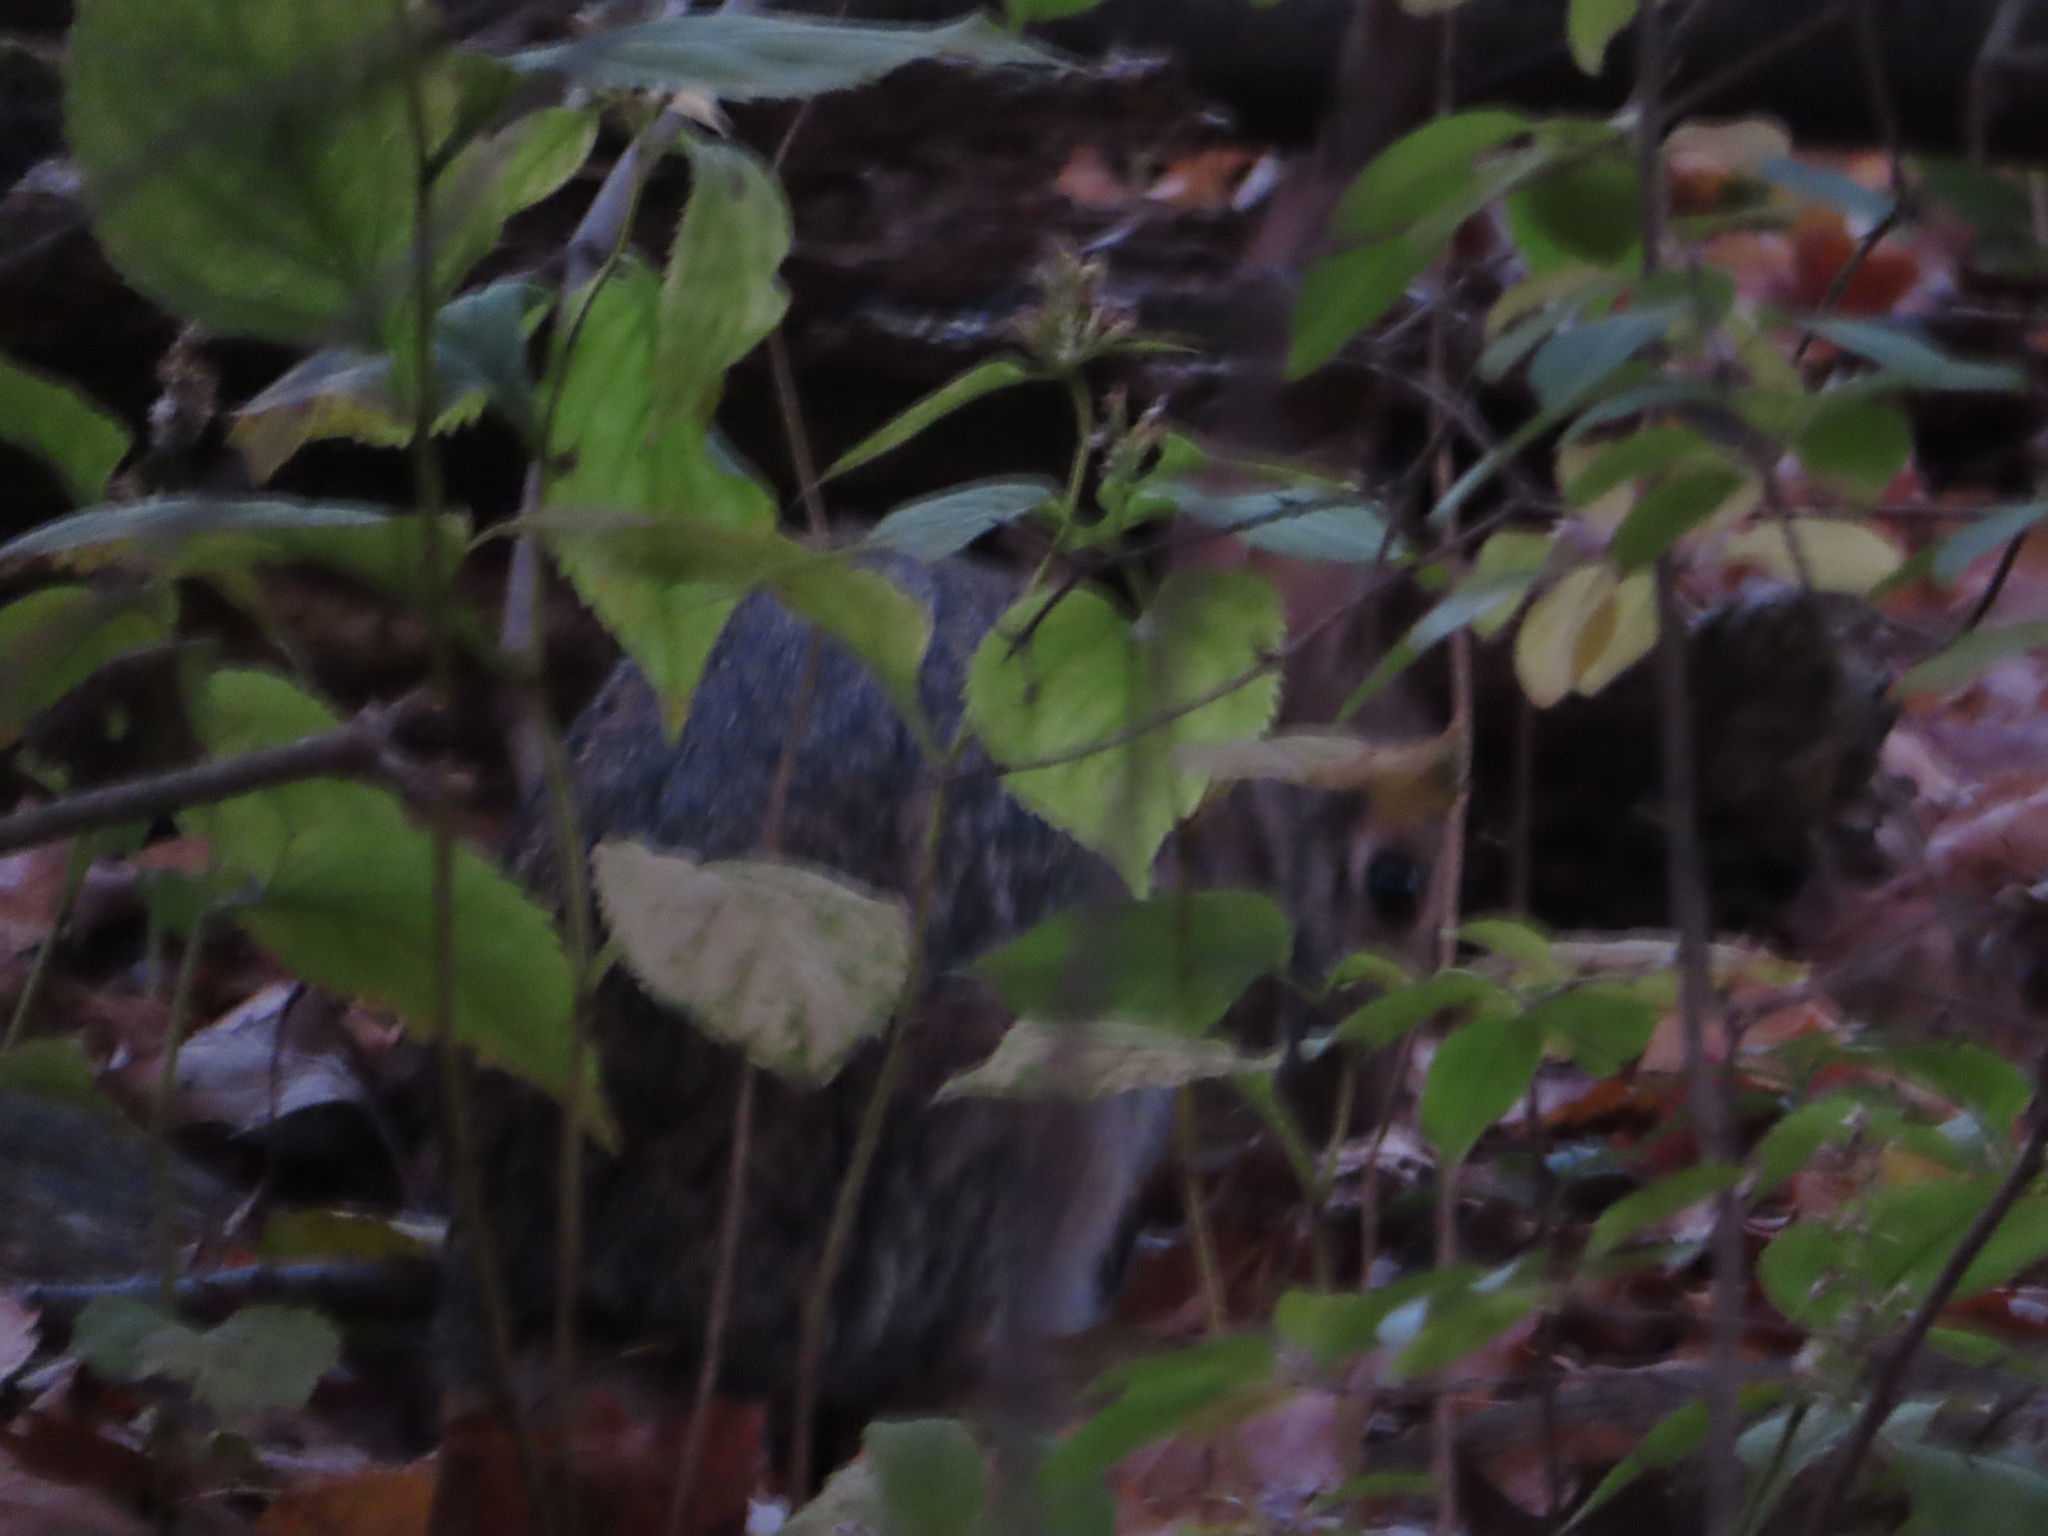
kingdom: Animalia
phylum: Chordata
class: Mammalia
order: Lagomorpha
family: Leporidae
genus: Sylvilagus
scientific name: Sylvilagus floridanus
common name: Eastern cottontail
